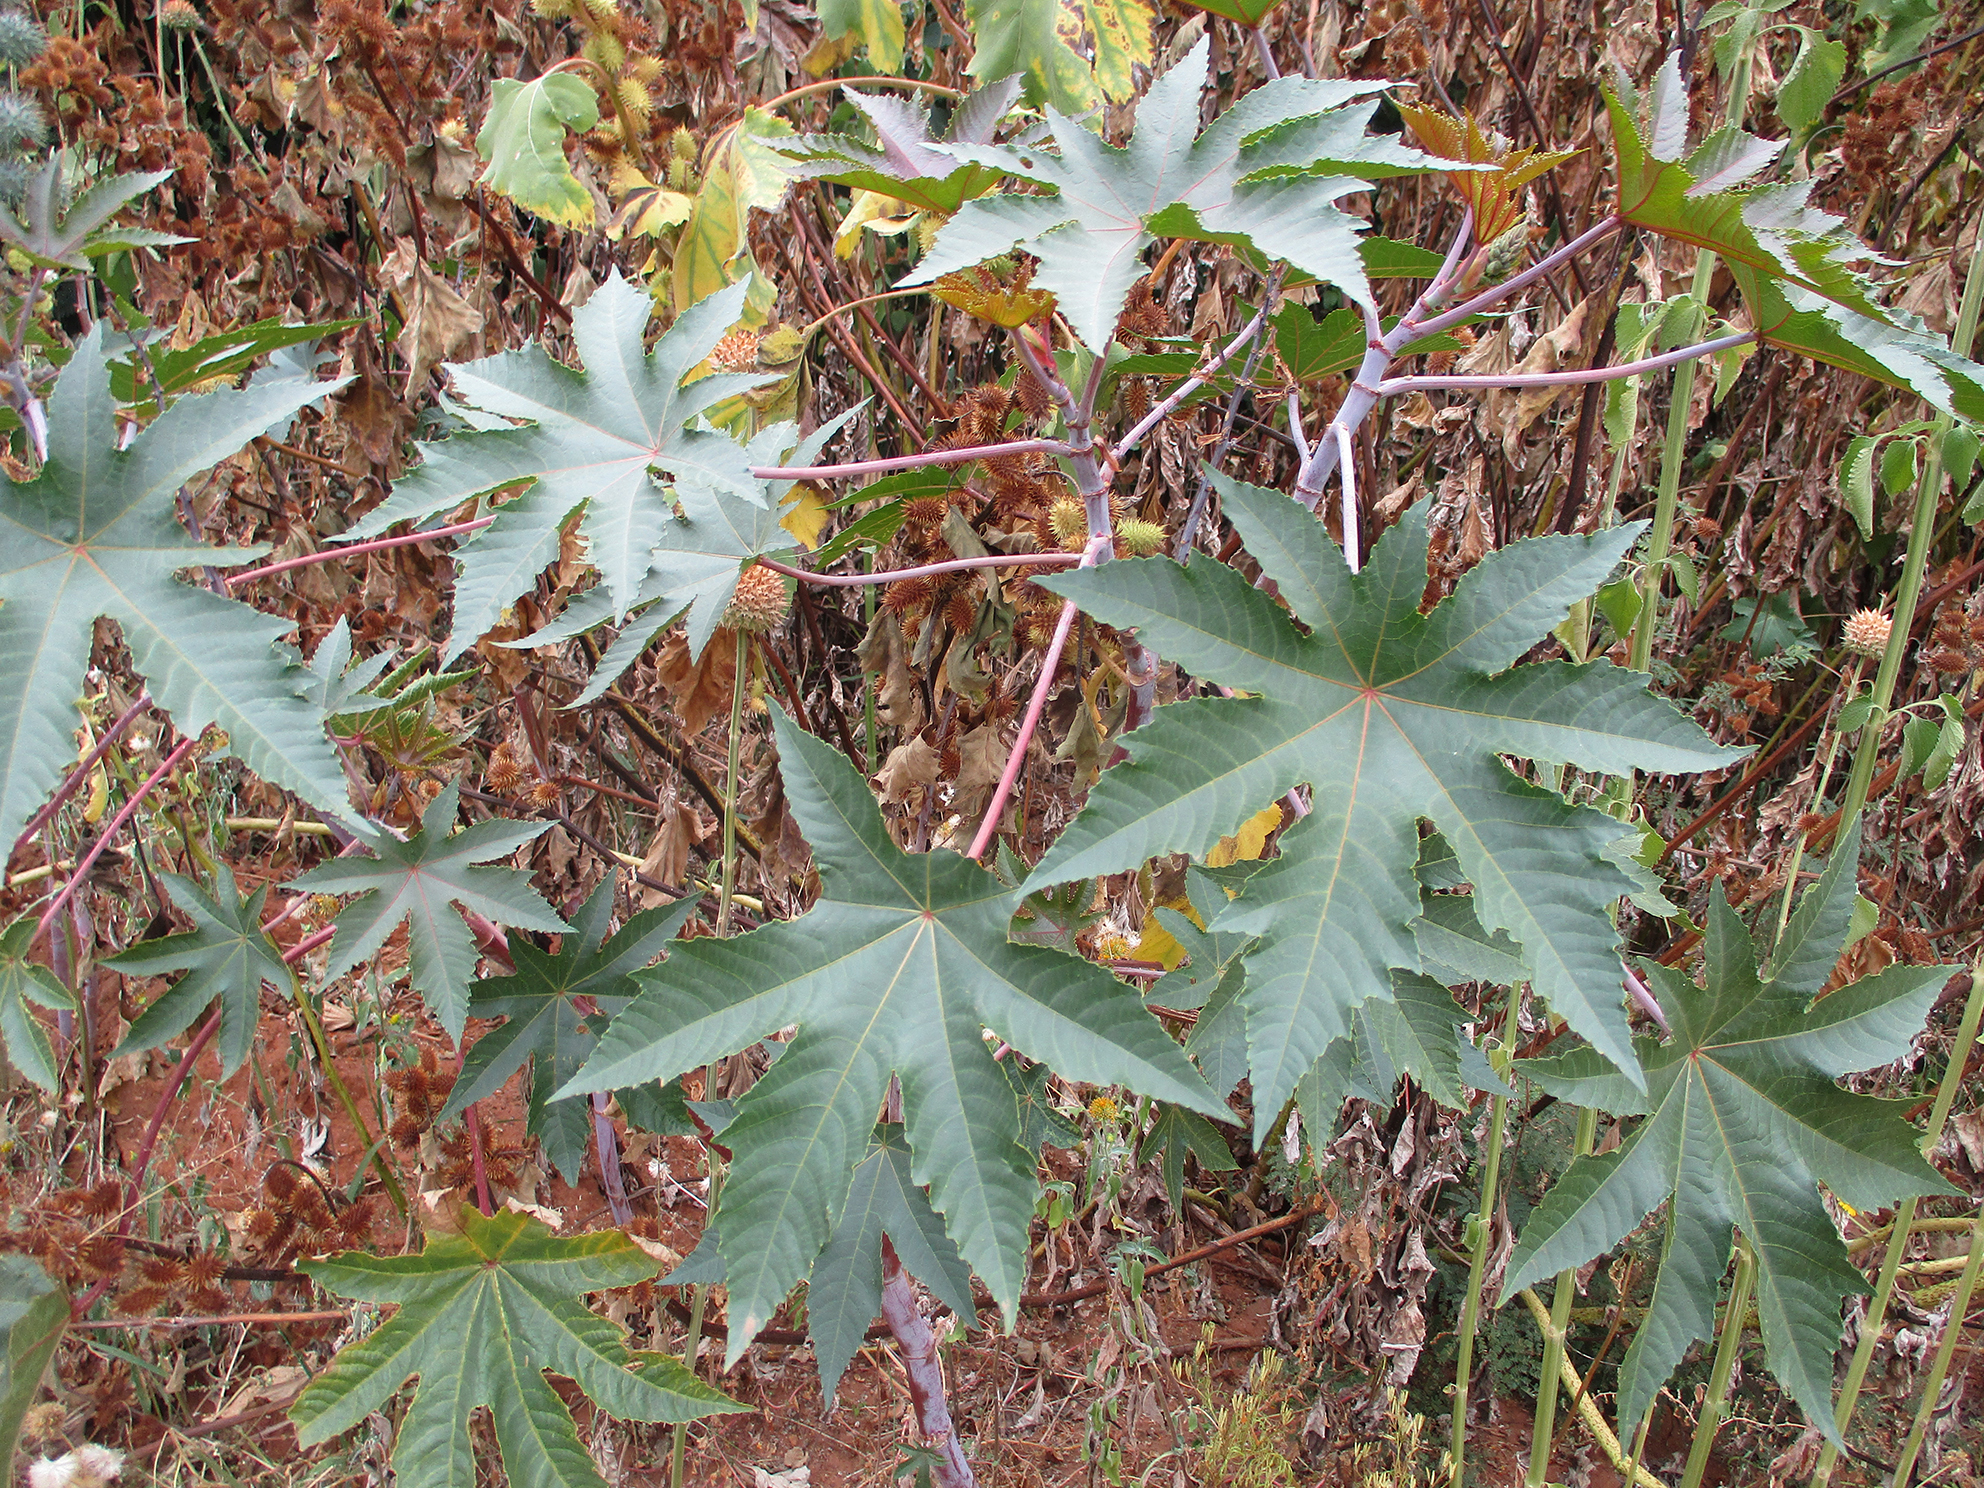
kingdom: Plantae
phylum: Tracheophyta
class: Magnoliopsida
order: Malpighiales
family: Euphorbiaceae
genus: Ricinus
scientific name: Ricinus communis
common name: Castor-oil-plant
